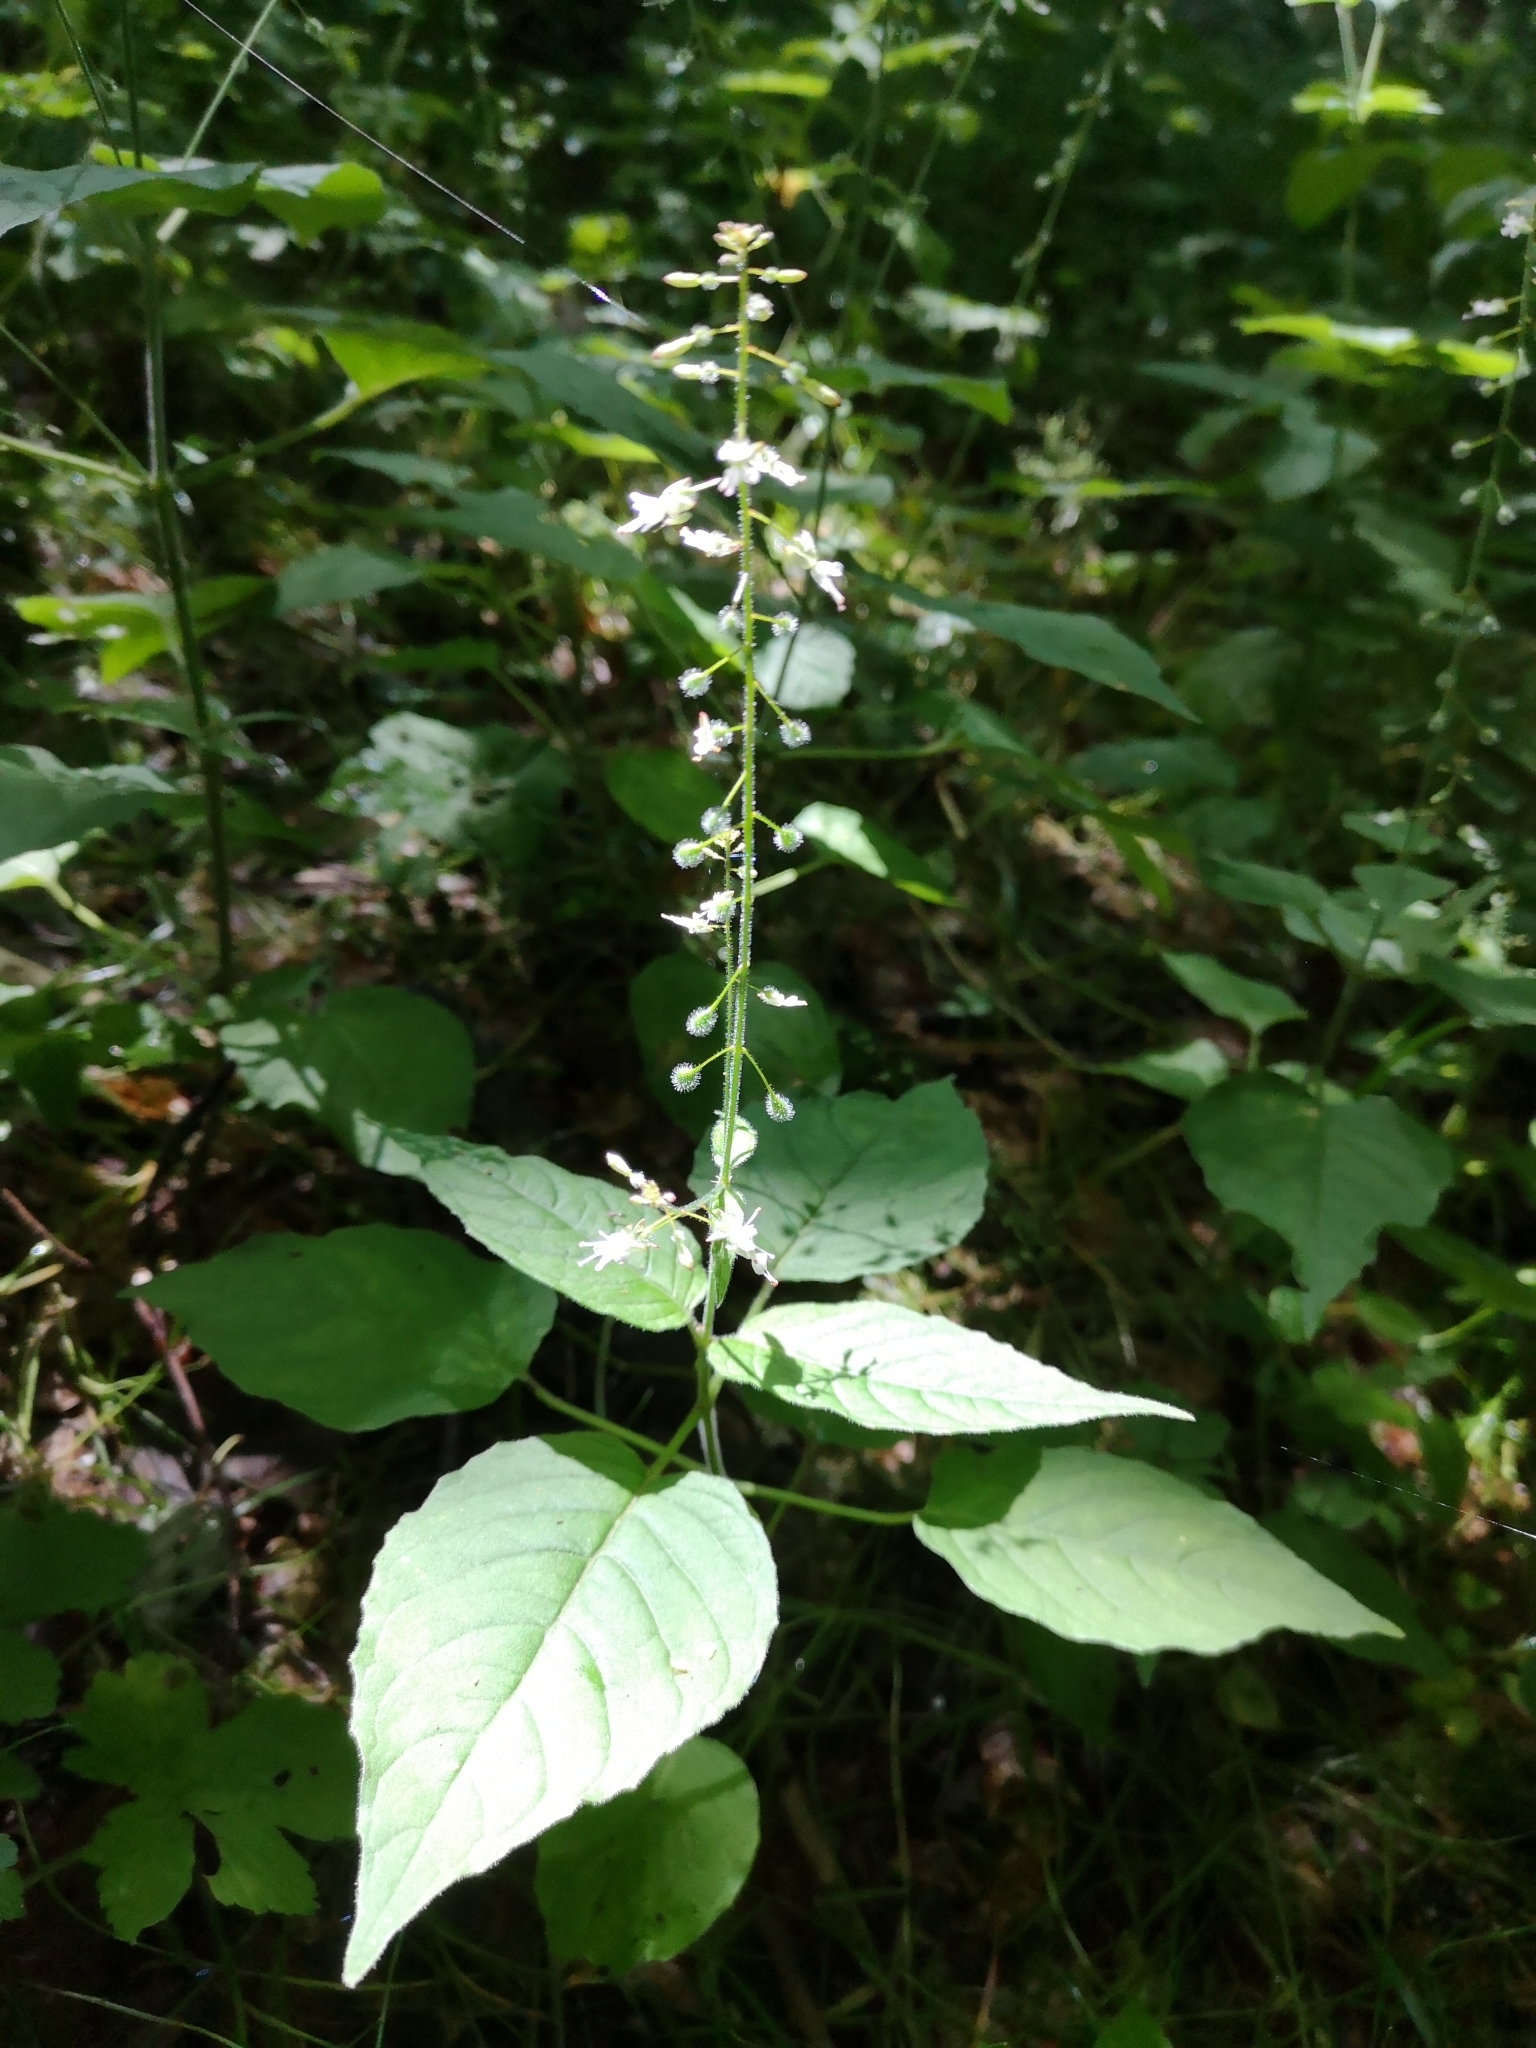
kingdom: Plantae
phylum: Tracheophyta
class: Magnoliopsida
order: Myrtales
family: Onagraceae
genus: Circaea
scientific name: Circaea lutetiana
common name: Enchanter's-nightshade
